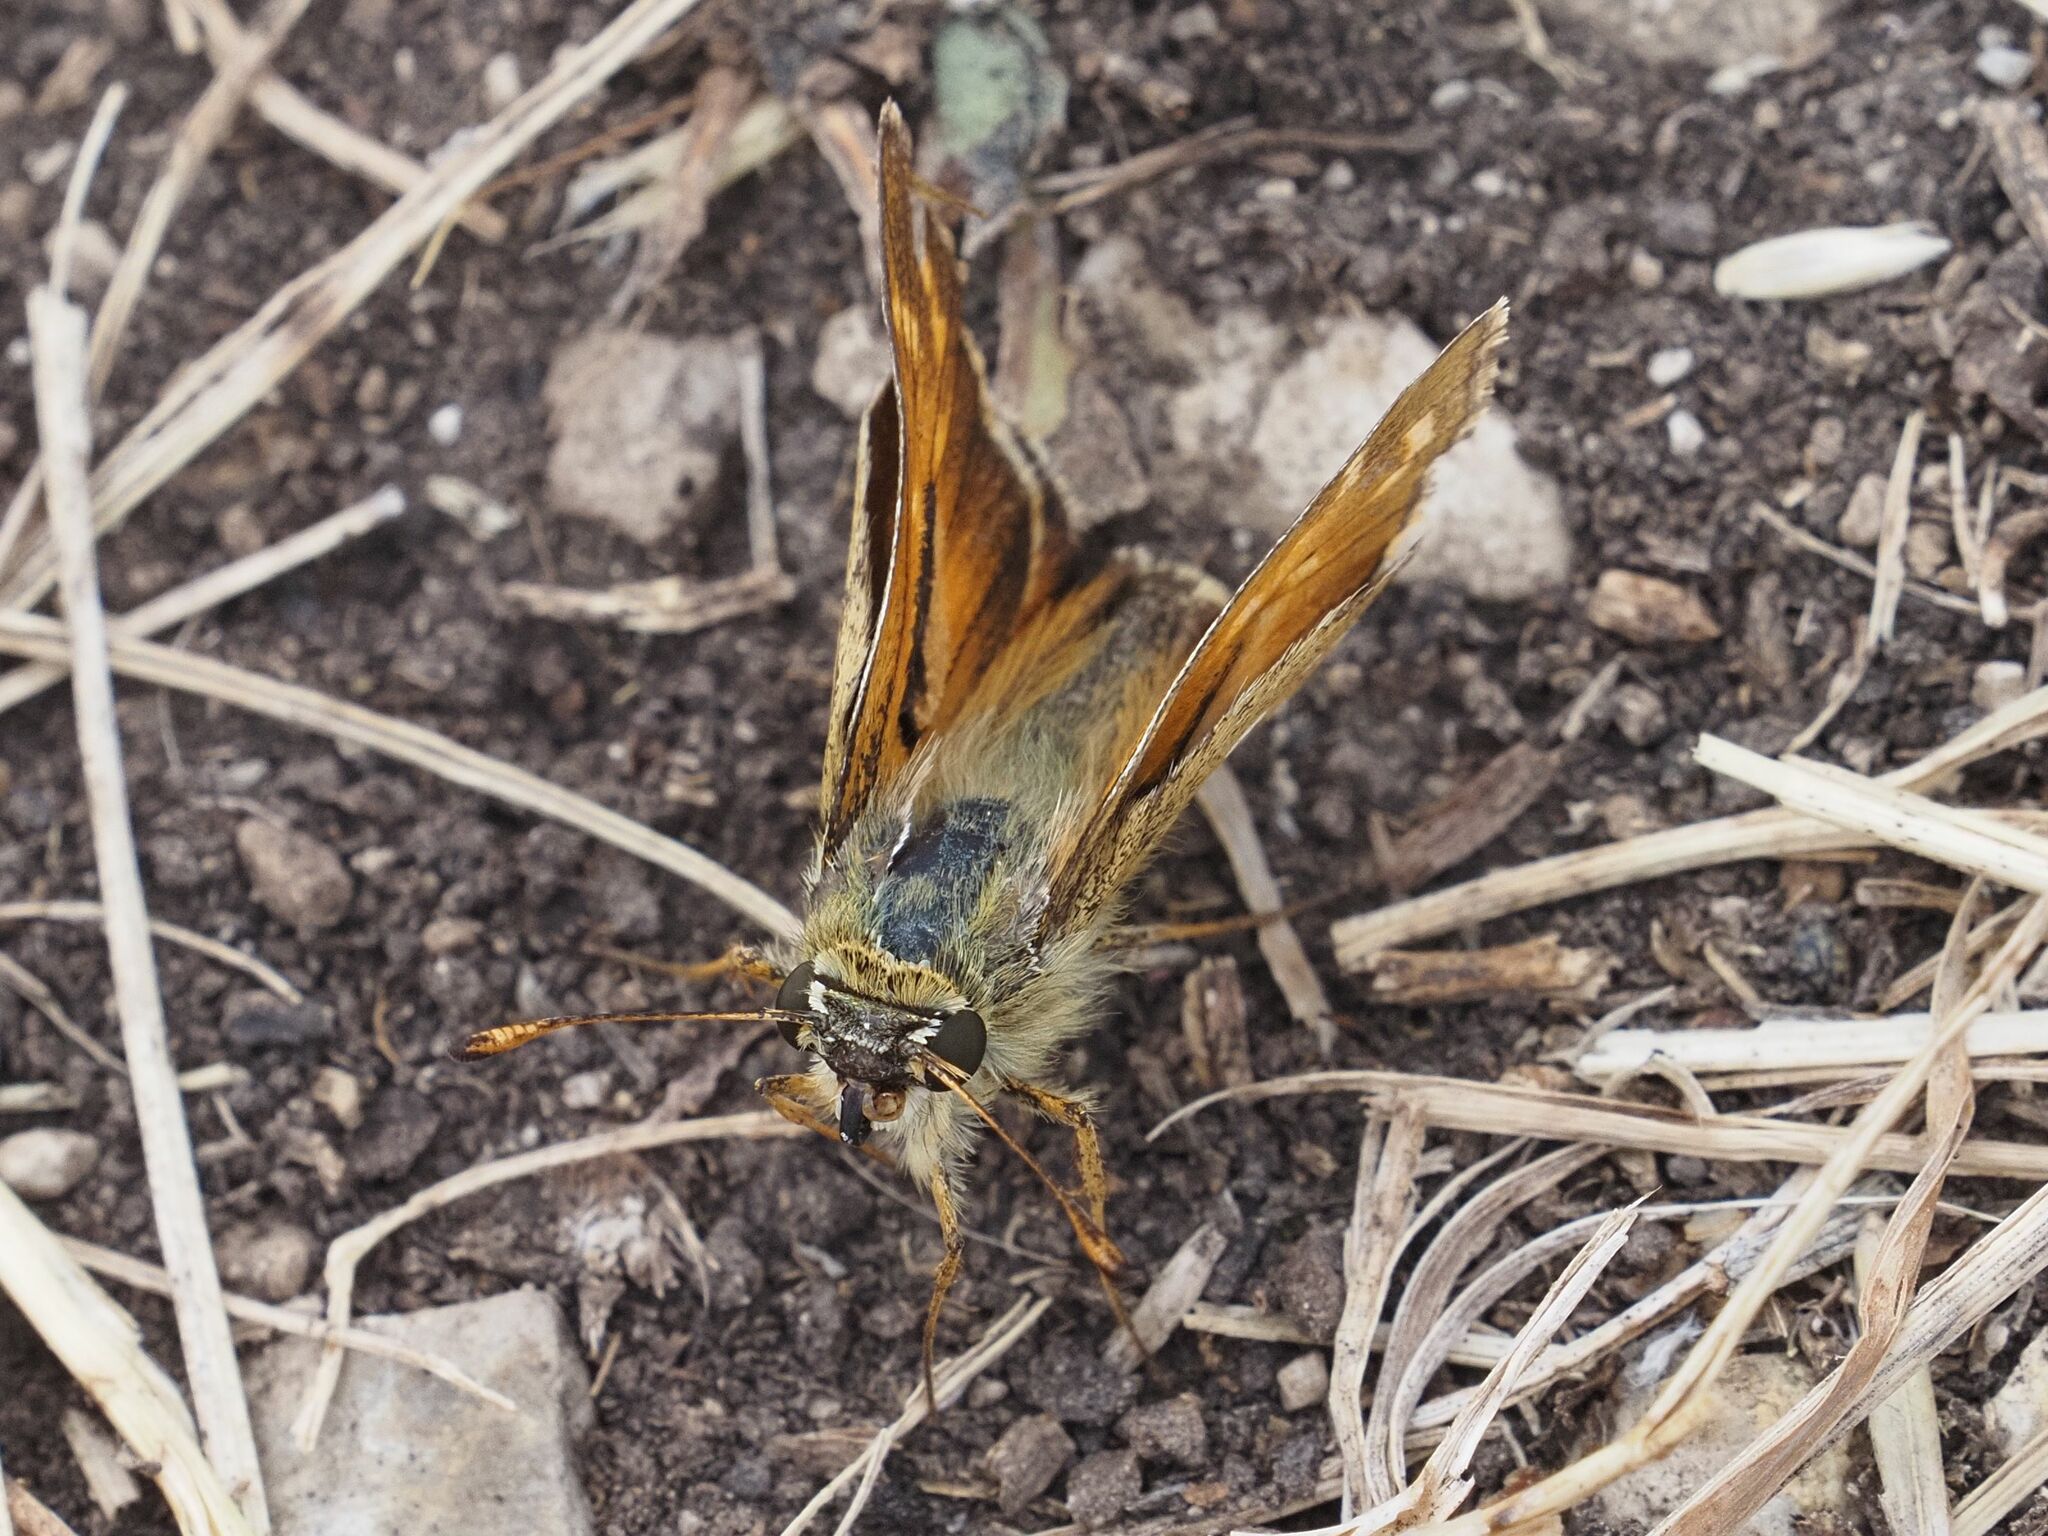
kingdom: Animalia
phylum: Arthropoda
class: Insecta
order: Lepidoptera
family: Hesperiidae
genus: Hesperia
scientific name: Hesperia comma
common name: Common branded skipper
